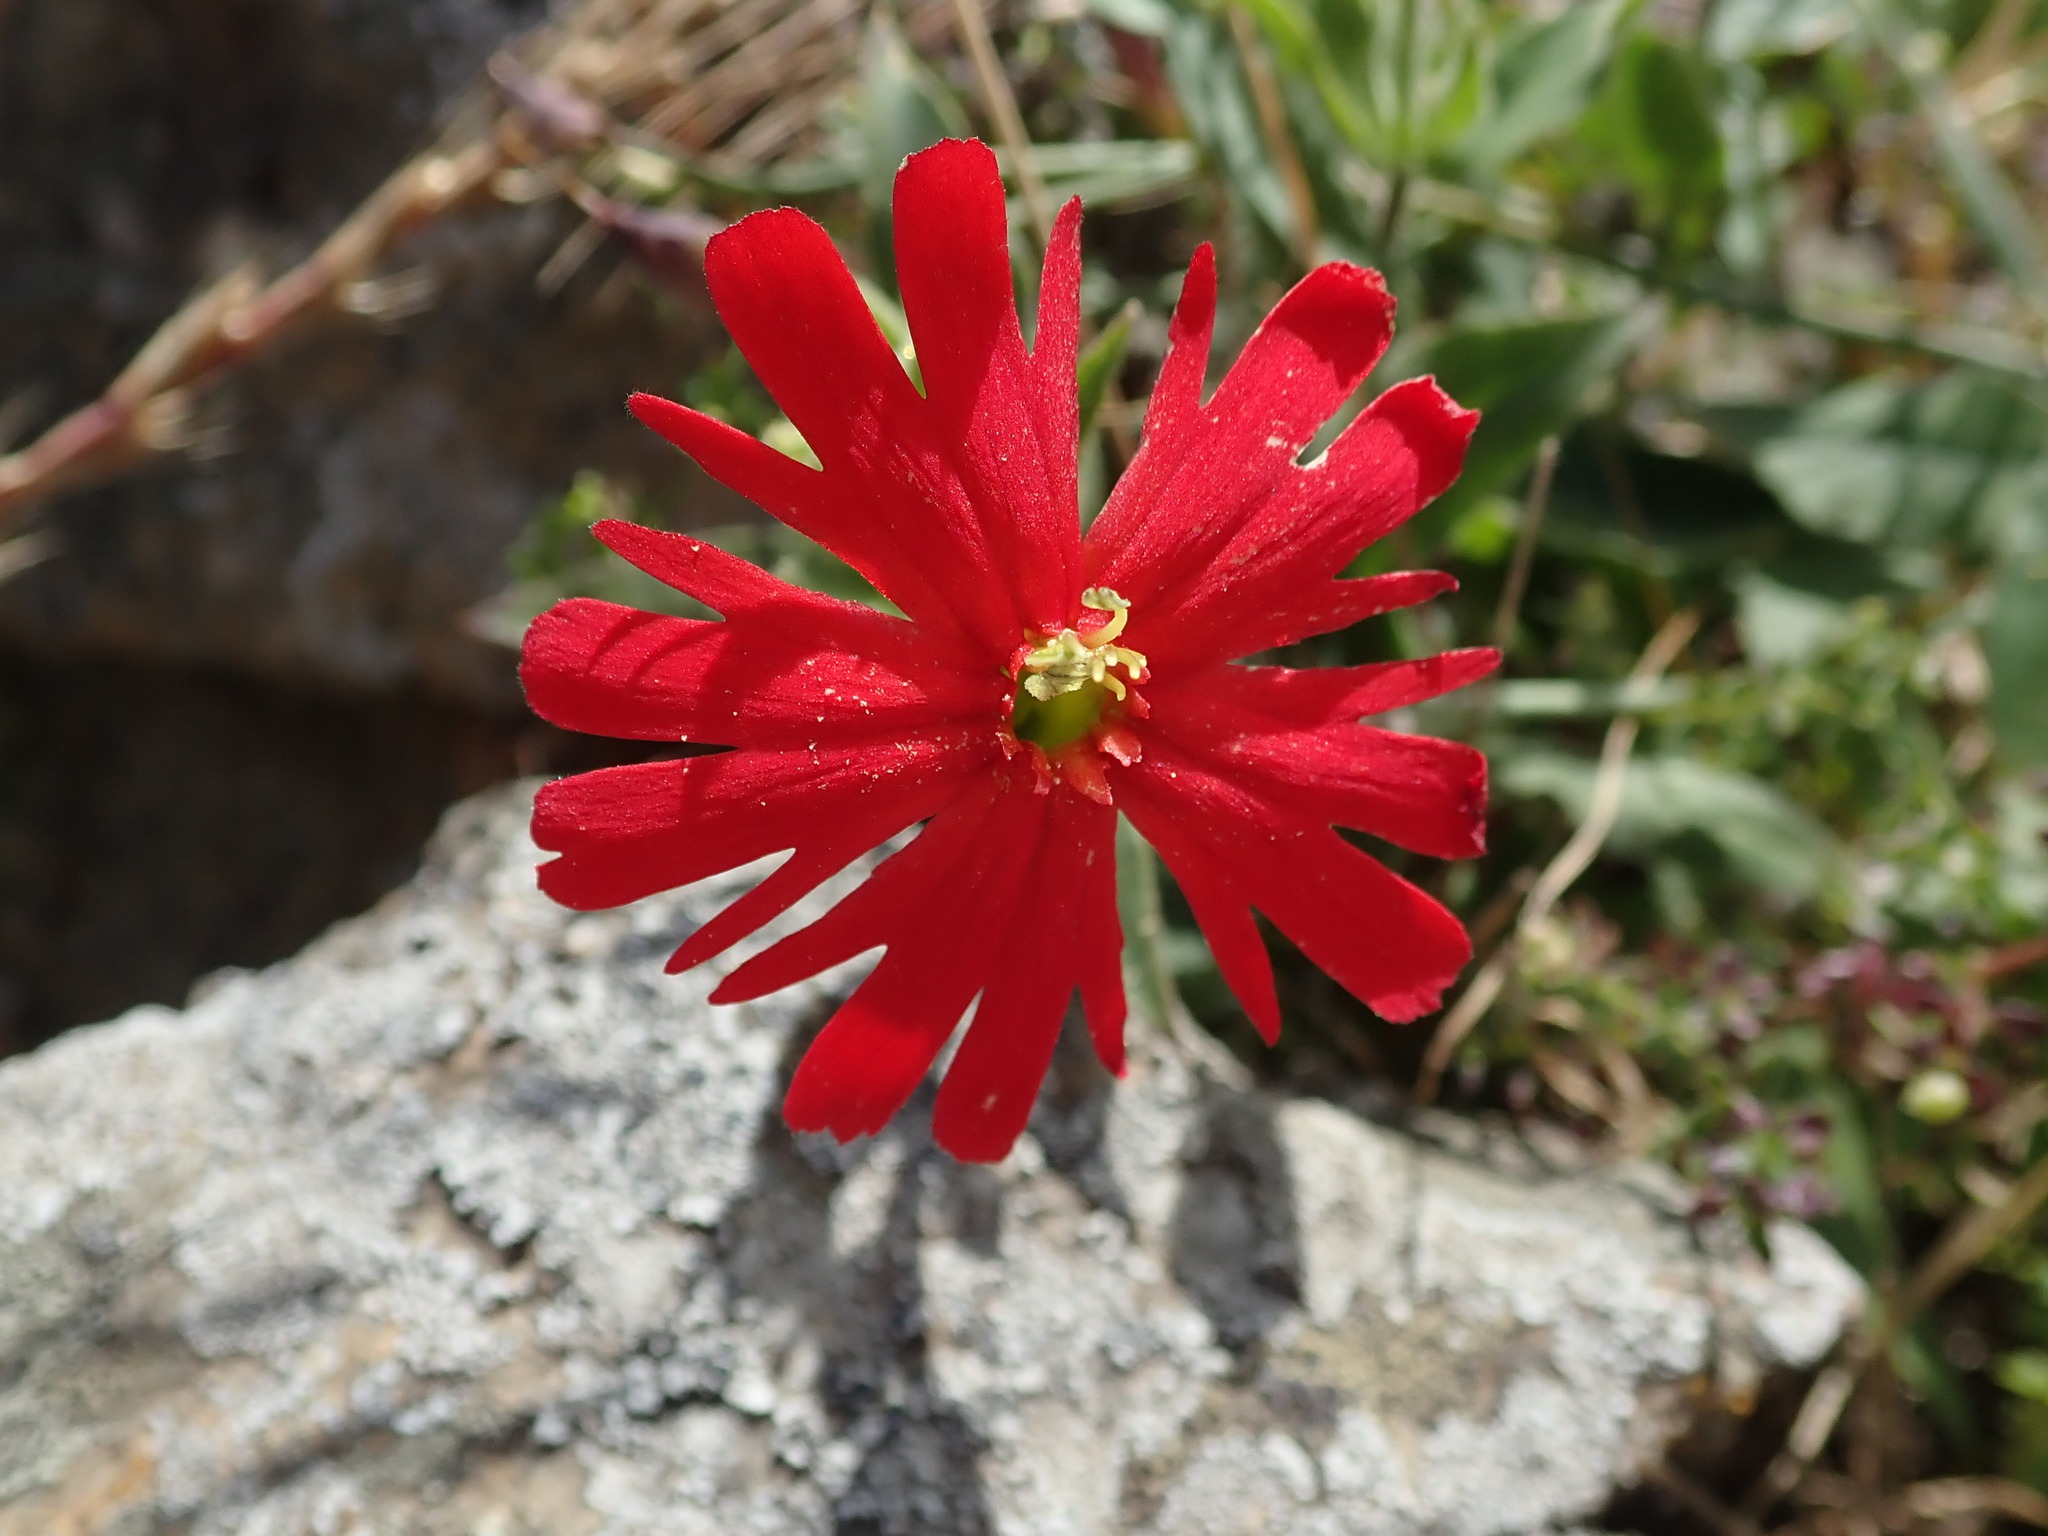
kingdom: Plantae
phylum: Tracheophyta
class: Magnoliopsida
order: Caryophyllales
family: Caryophyllaceae
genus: Silene
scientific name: Silene laciniata
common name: Indian-pink
